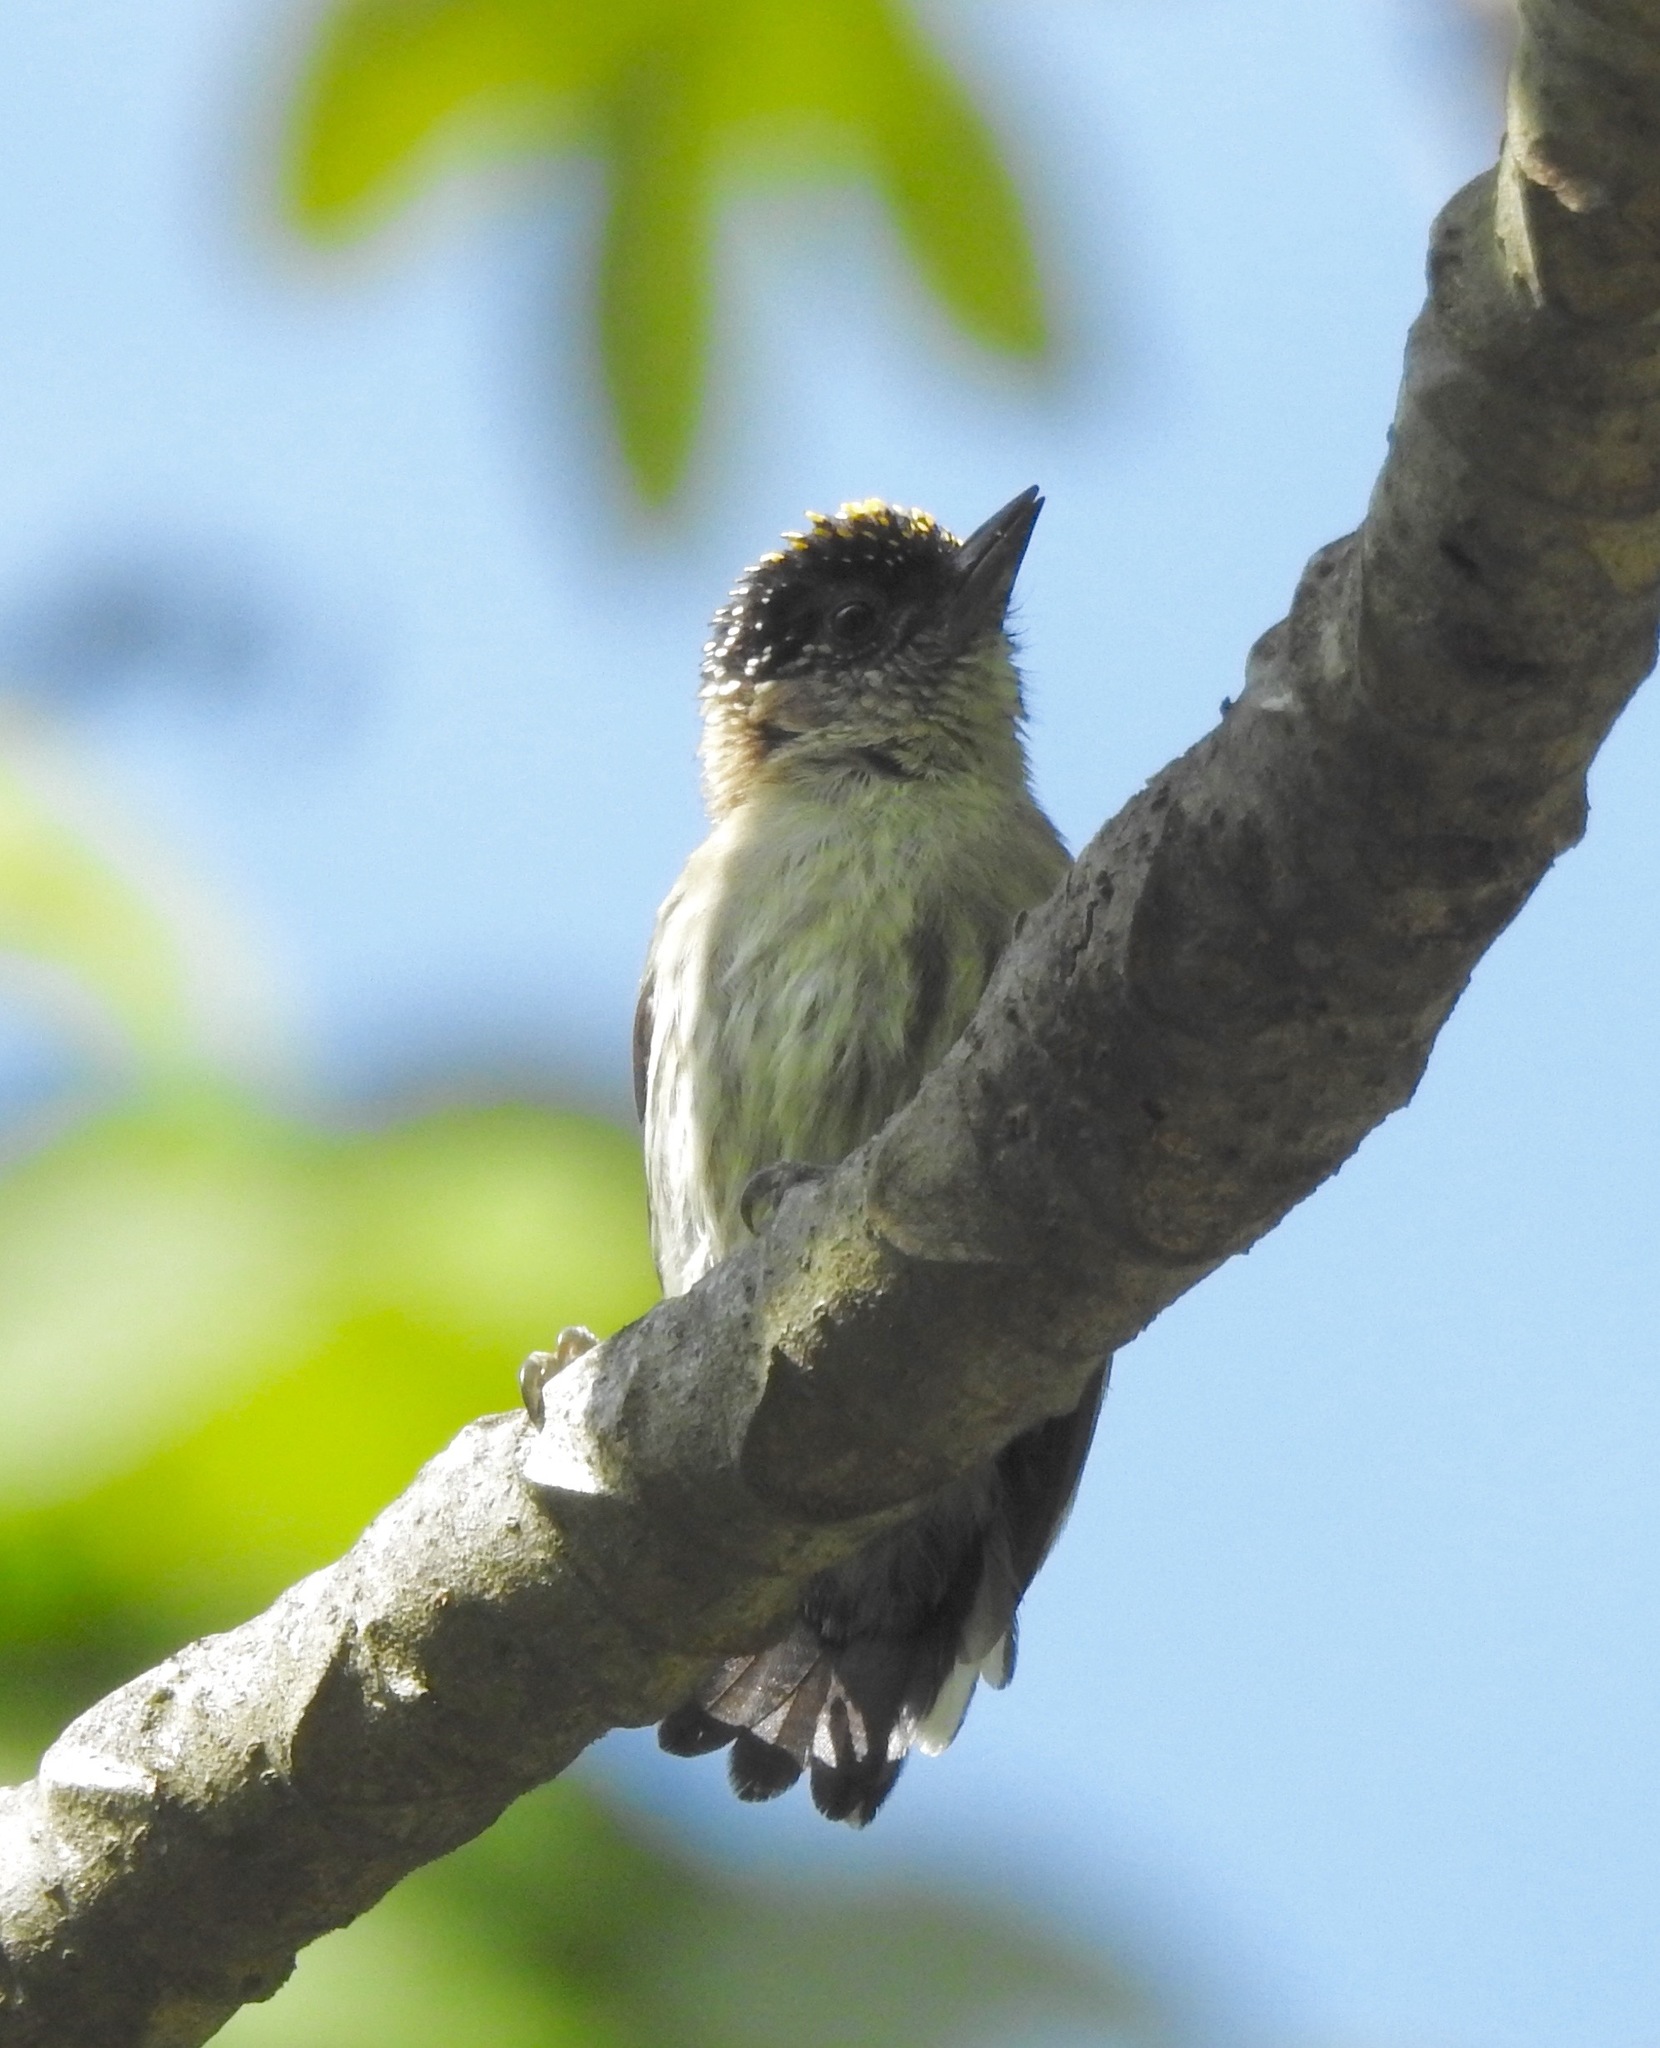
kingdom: Animalia
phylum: Chordata
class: Aves
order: Piciformes
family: Picidae
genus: Picumnus
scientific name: Picumnus granadensis
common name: Greyish piculet
